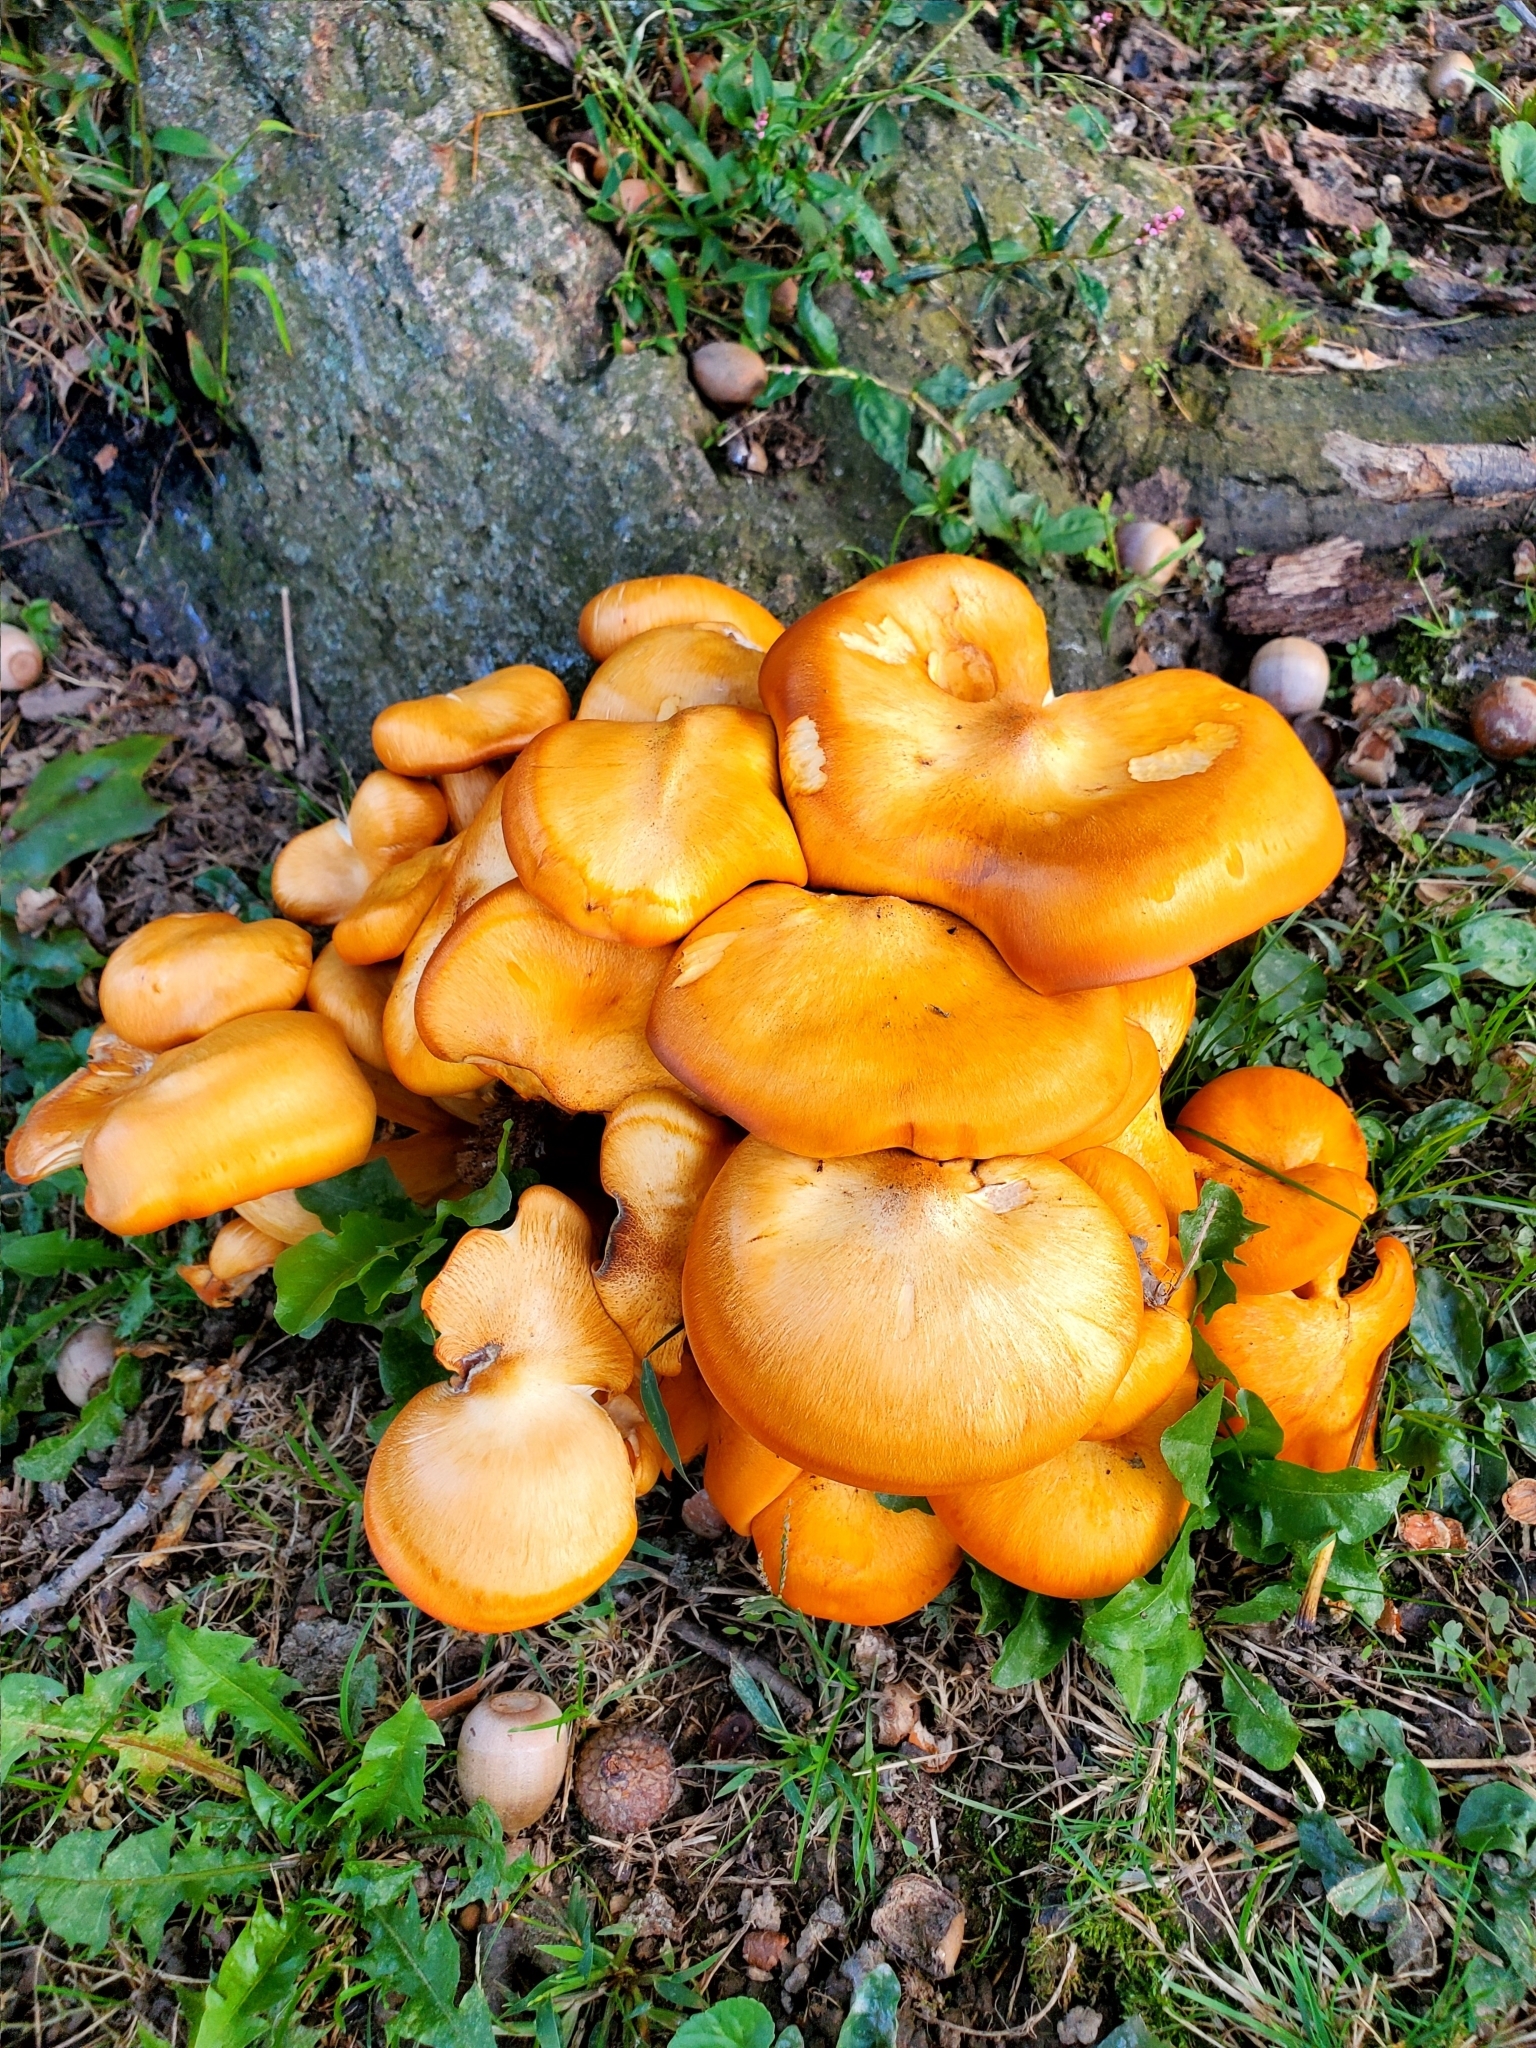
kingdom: Fungi
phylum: Basidiomycota
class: Agaricomycetes
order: Agaricales
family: Omphalotaceae
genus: Omphalotus
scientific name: Omphalotus illudens
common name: Jack o lantern
